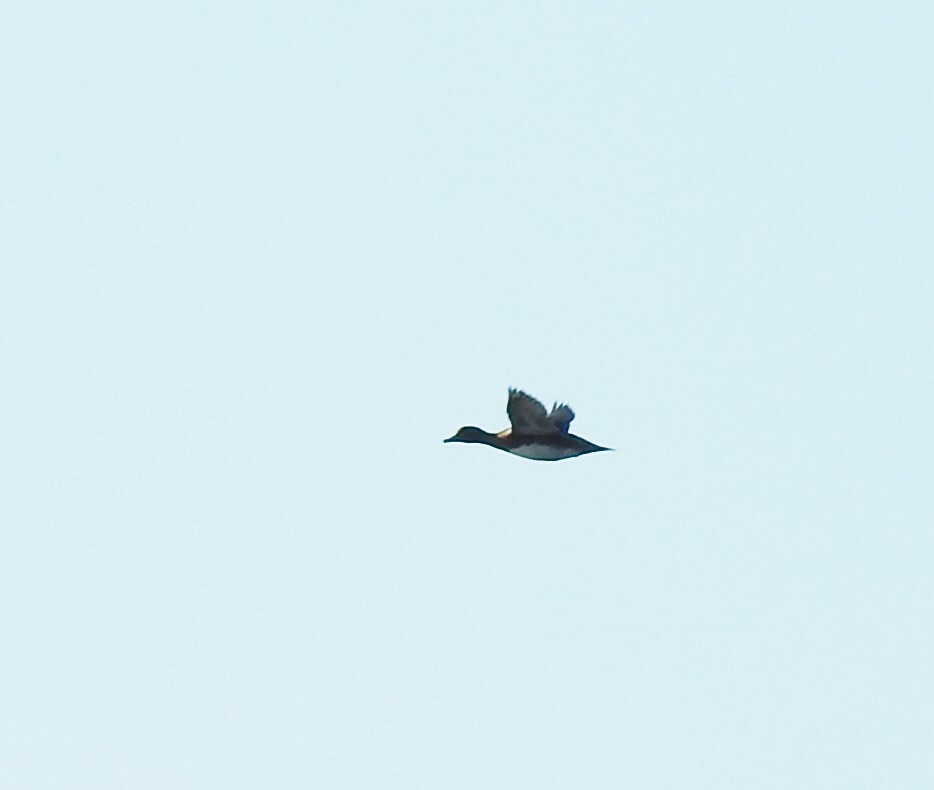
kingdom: Animalia
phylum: Chordata
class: Aves
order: Anseriformes
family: Anatidae
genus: Mareca
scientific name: Mareca penelope
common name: Eurasian wigeon
